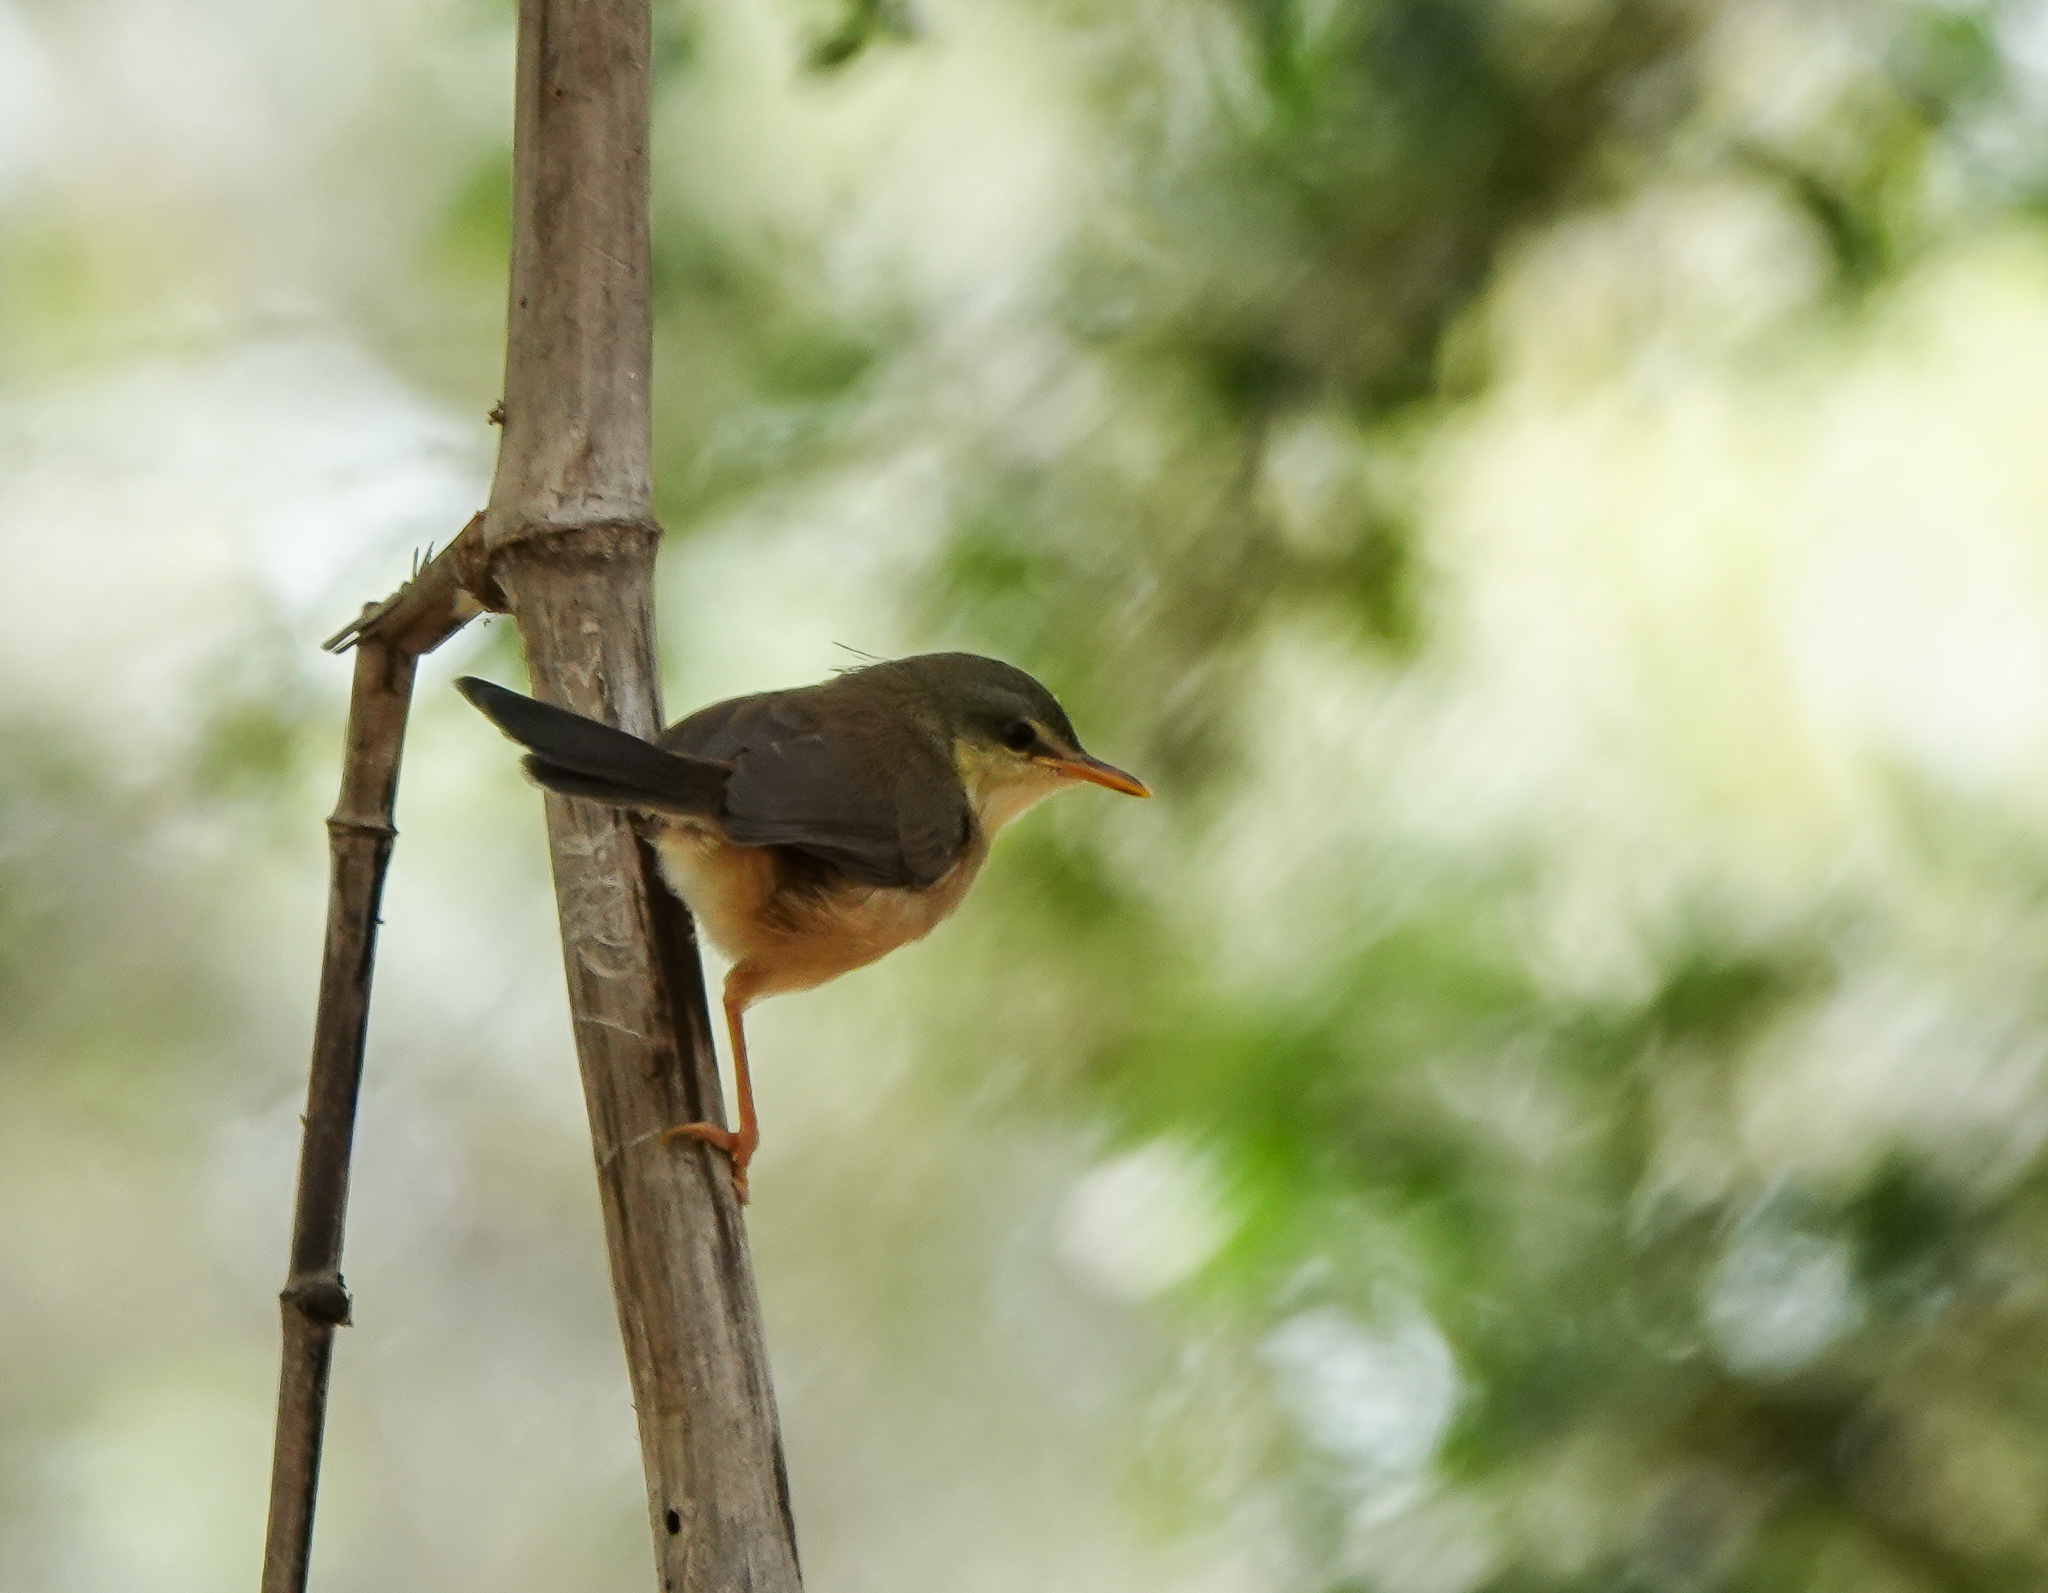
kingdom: Animalia
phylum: Chordata
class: Aves
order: Passeriformes
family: Cisticolidae
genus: Prinia
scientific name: Prinia socialis
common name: Ashy prinia
